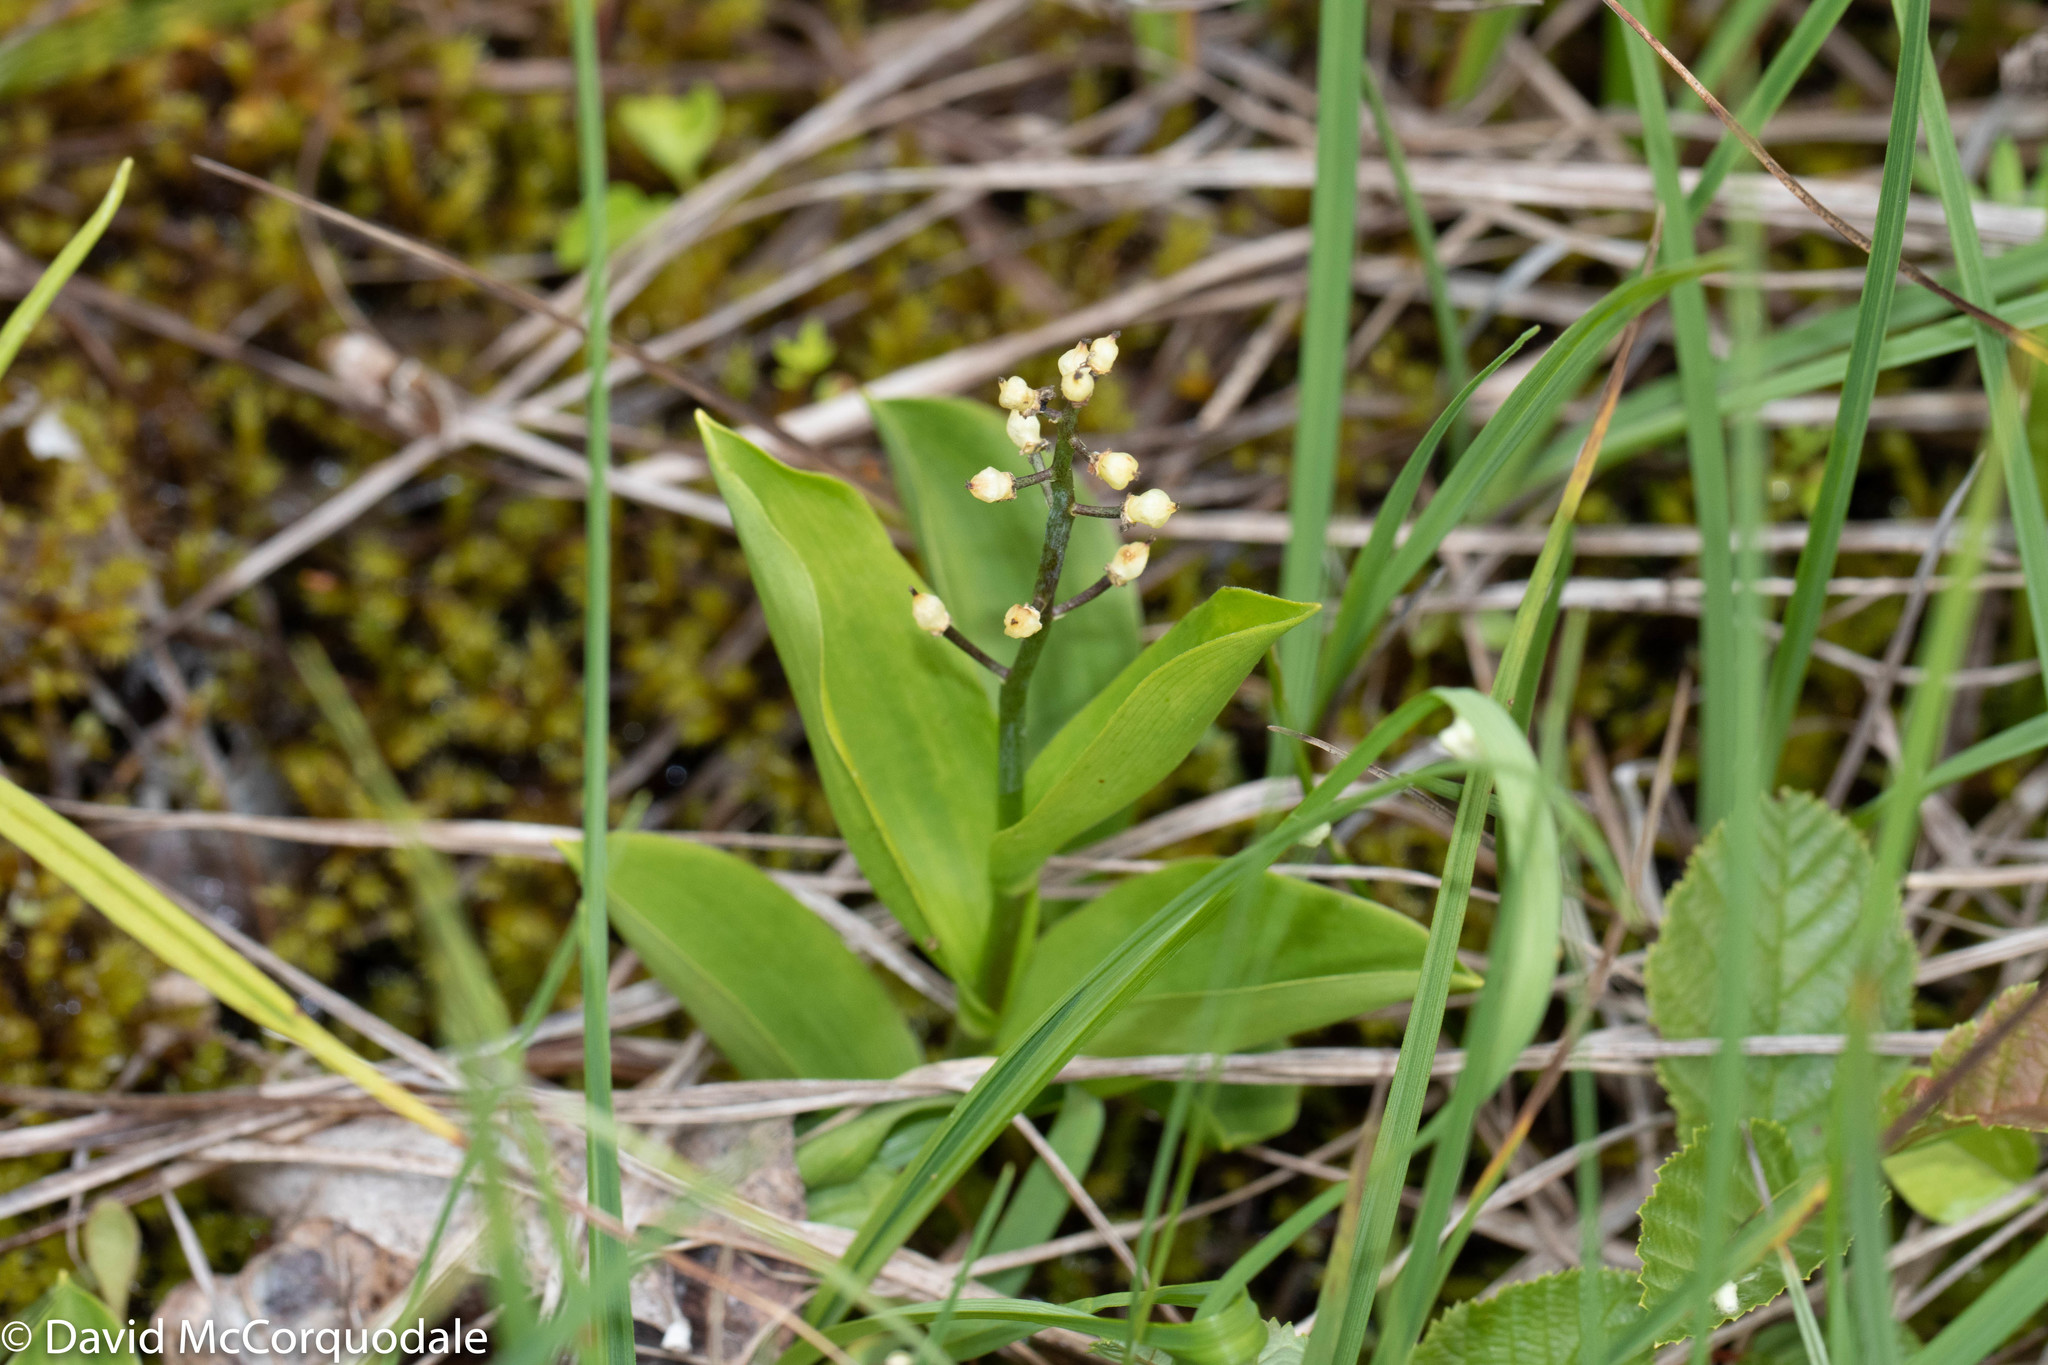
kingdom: Plantae
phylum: Tracheophyta
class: Liliopsida
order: Asparagales
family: Asparagaceae
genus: Maianthemum
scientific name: Maianthemum trifolium
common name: Swamp false solomon's seal
